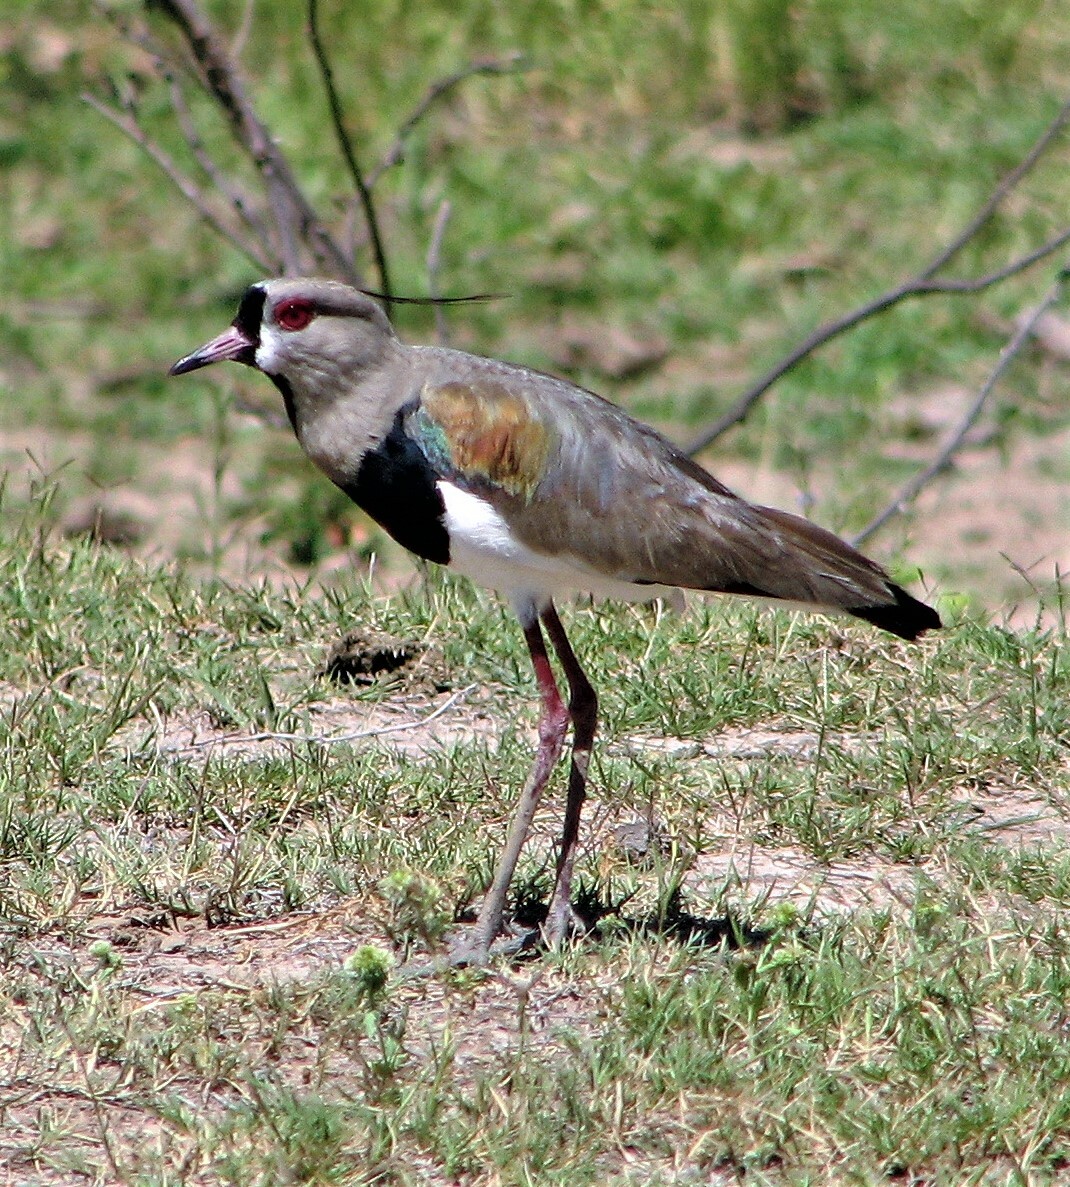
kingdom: Animalia
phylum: Chordata
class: Aves
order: Charadriiformes
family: Charadriidae
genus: Vanellus
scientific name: Vanellus chilensis
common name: Southern lapwing
